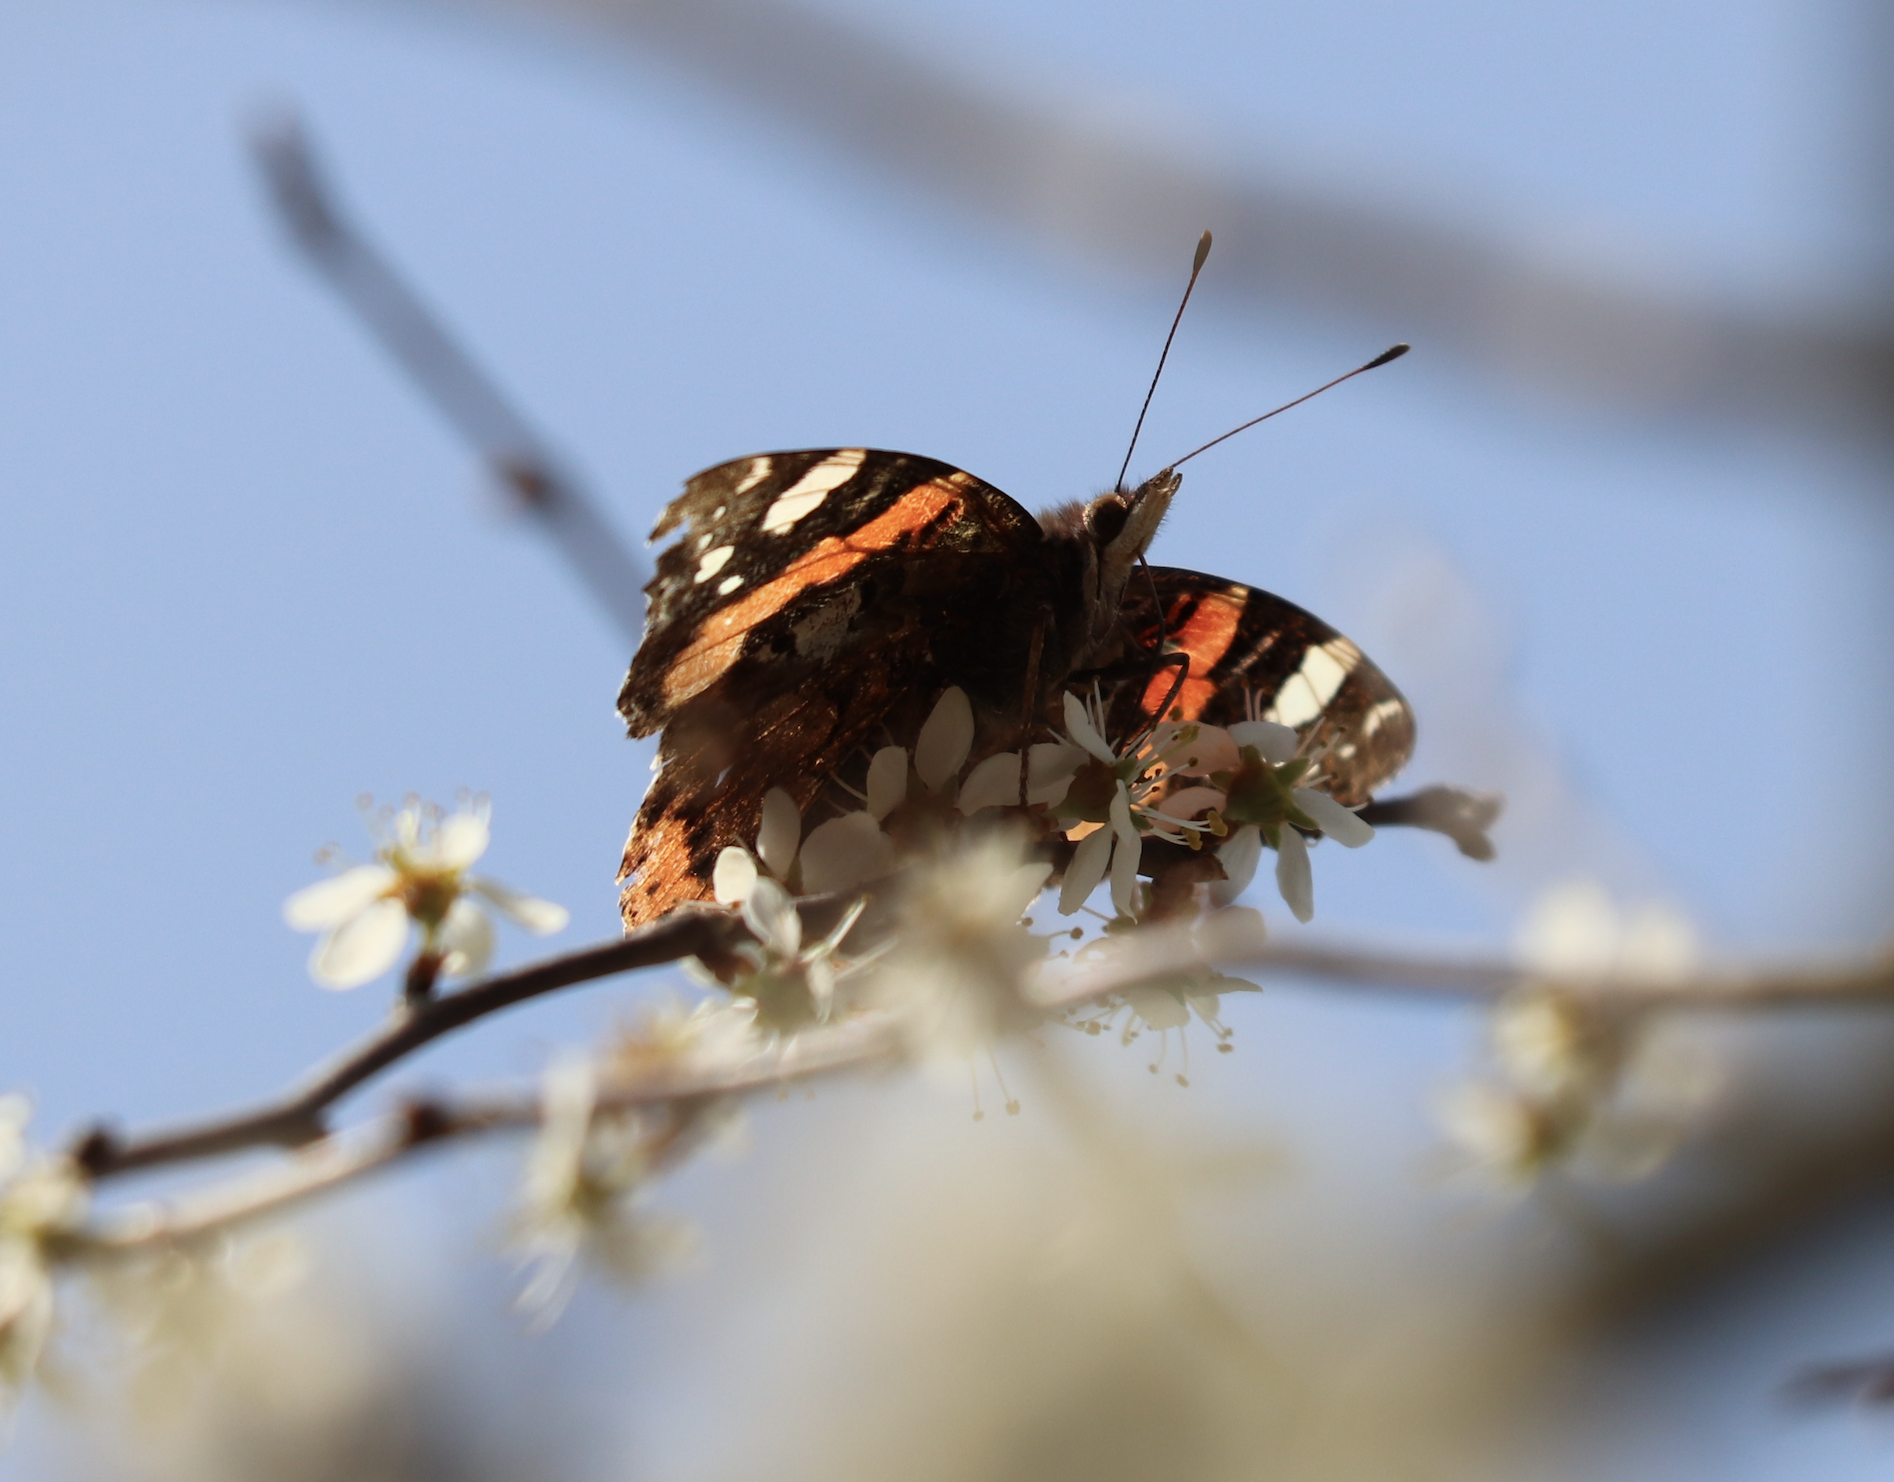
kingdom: Animalia
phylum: Arthropoda
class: Insecta
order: Lepidoptera
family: Nymphalidae
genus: Vanessa
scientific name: Vanessa atalanta
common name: Red admiral
